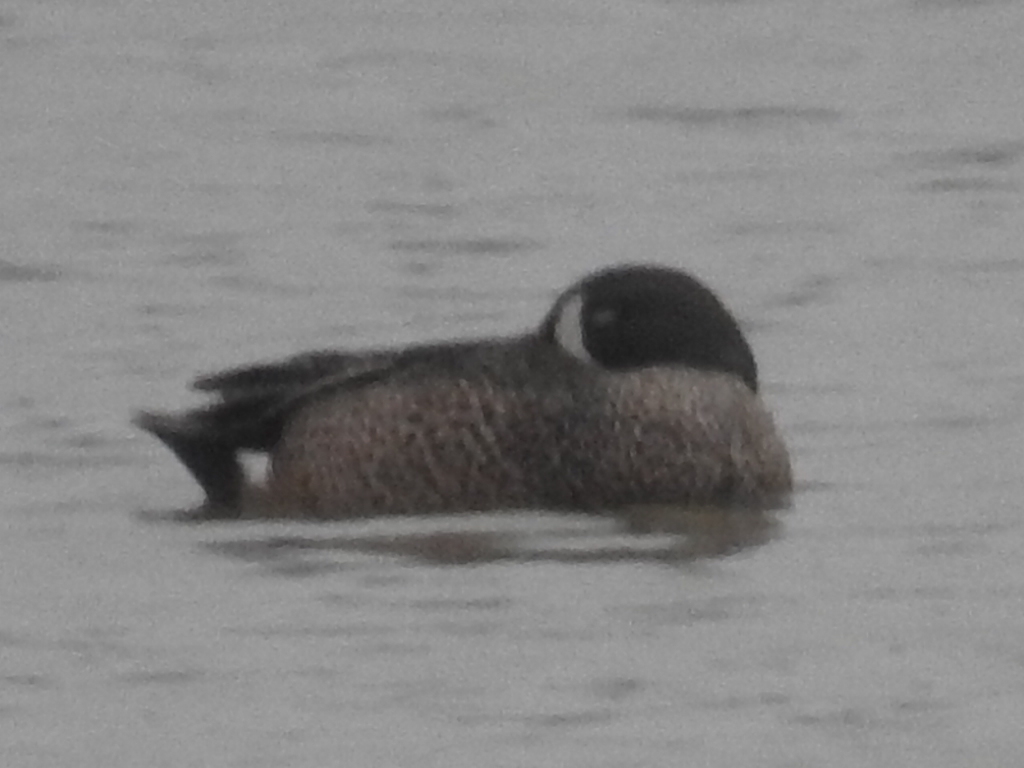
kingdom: Animalia
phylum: Chordata
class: Aves
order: Anseriformes
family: Anatidae
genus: Spatula
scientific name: Spatula discors
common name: Blue-winged teal
